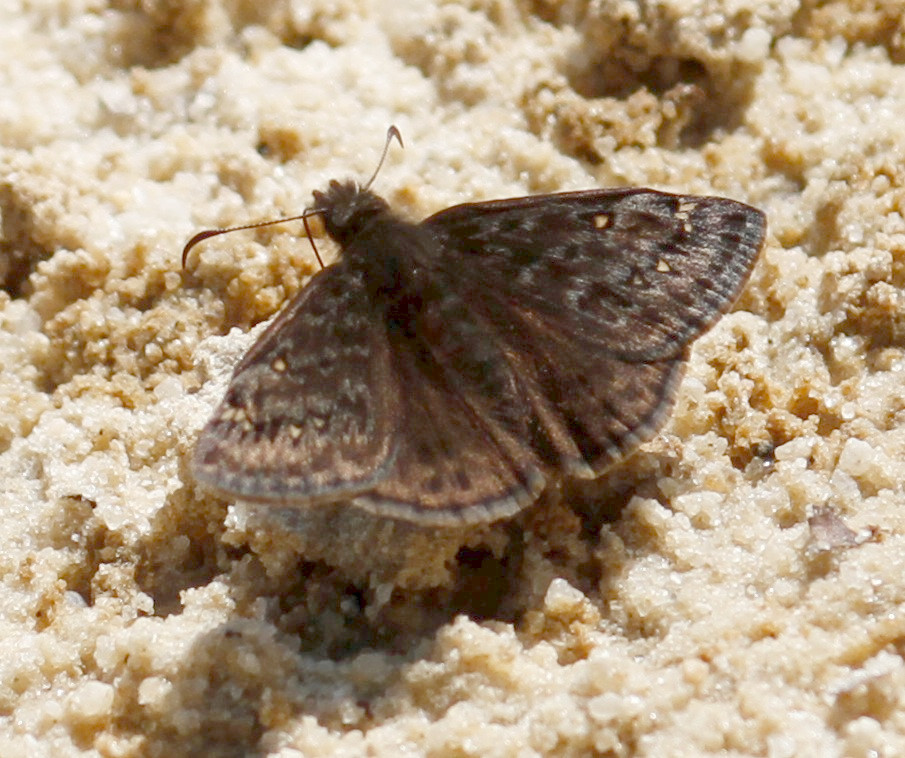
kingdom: Animalia
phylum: Arthropoda
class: Insecta
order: Lepidoptera
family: Hesperiidae
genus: Erynnis
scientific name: Erynnis juvenalis
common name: Juvenal's duskywing
